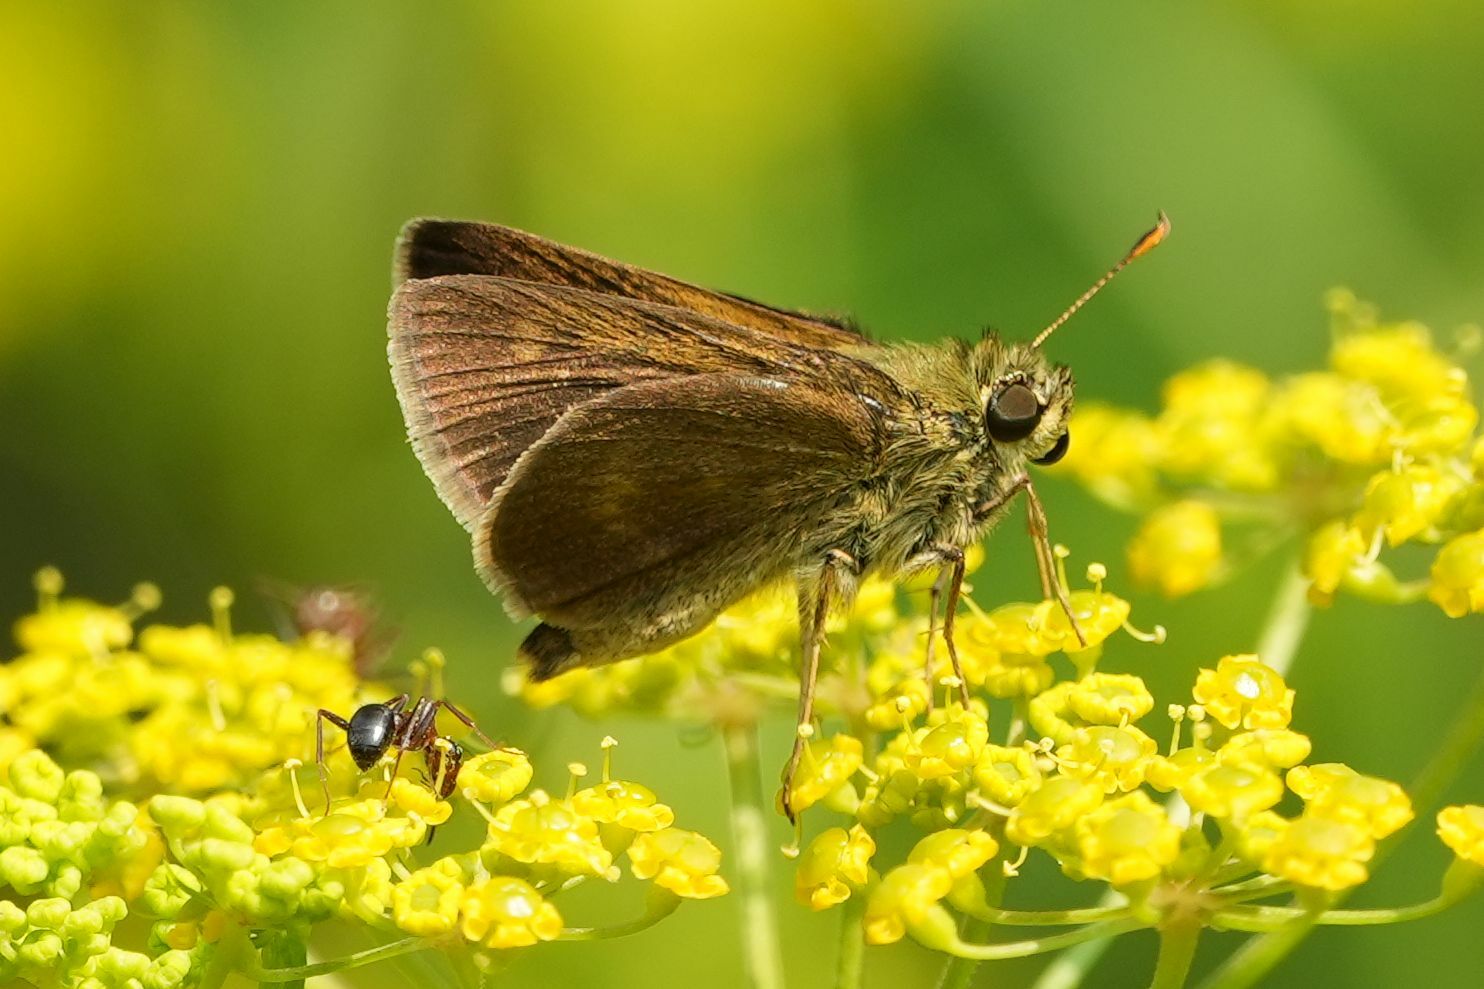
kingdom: Animalia
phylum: Arthropoda
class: Insecta
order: Lepidoptera
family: Hesperiidae
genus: Polites
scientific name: Polites egeremet
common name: Northern broken-dash
